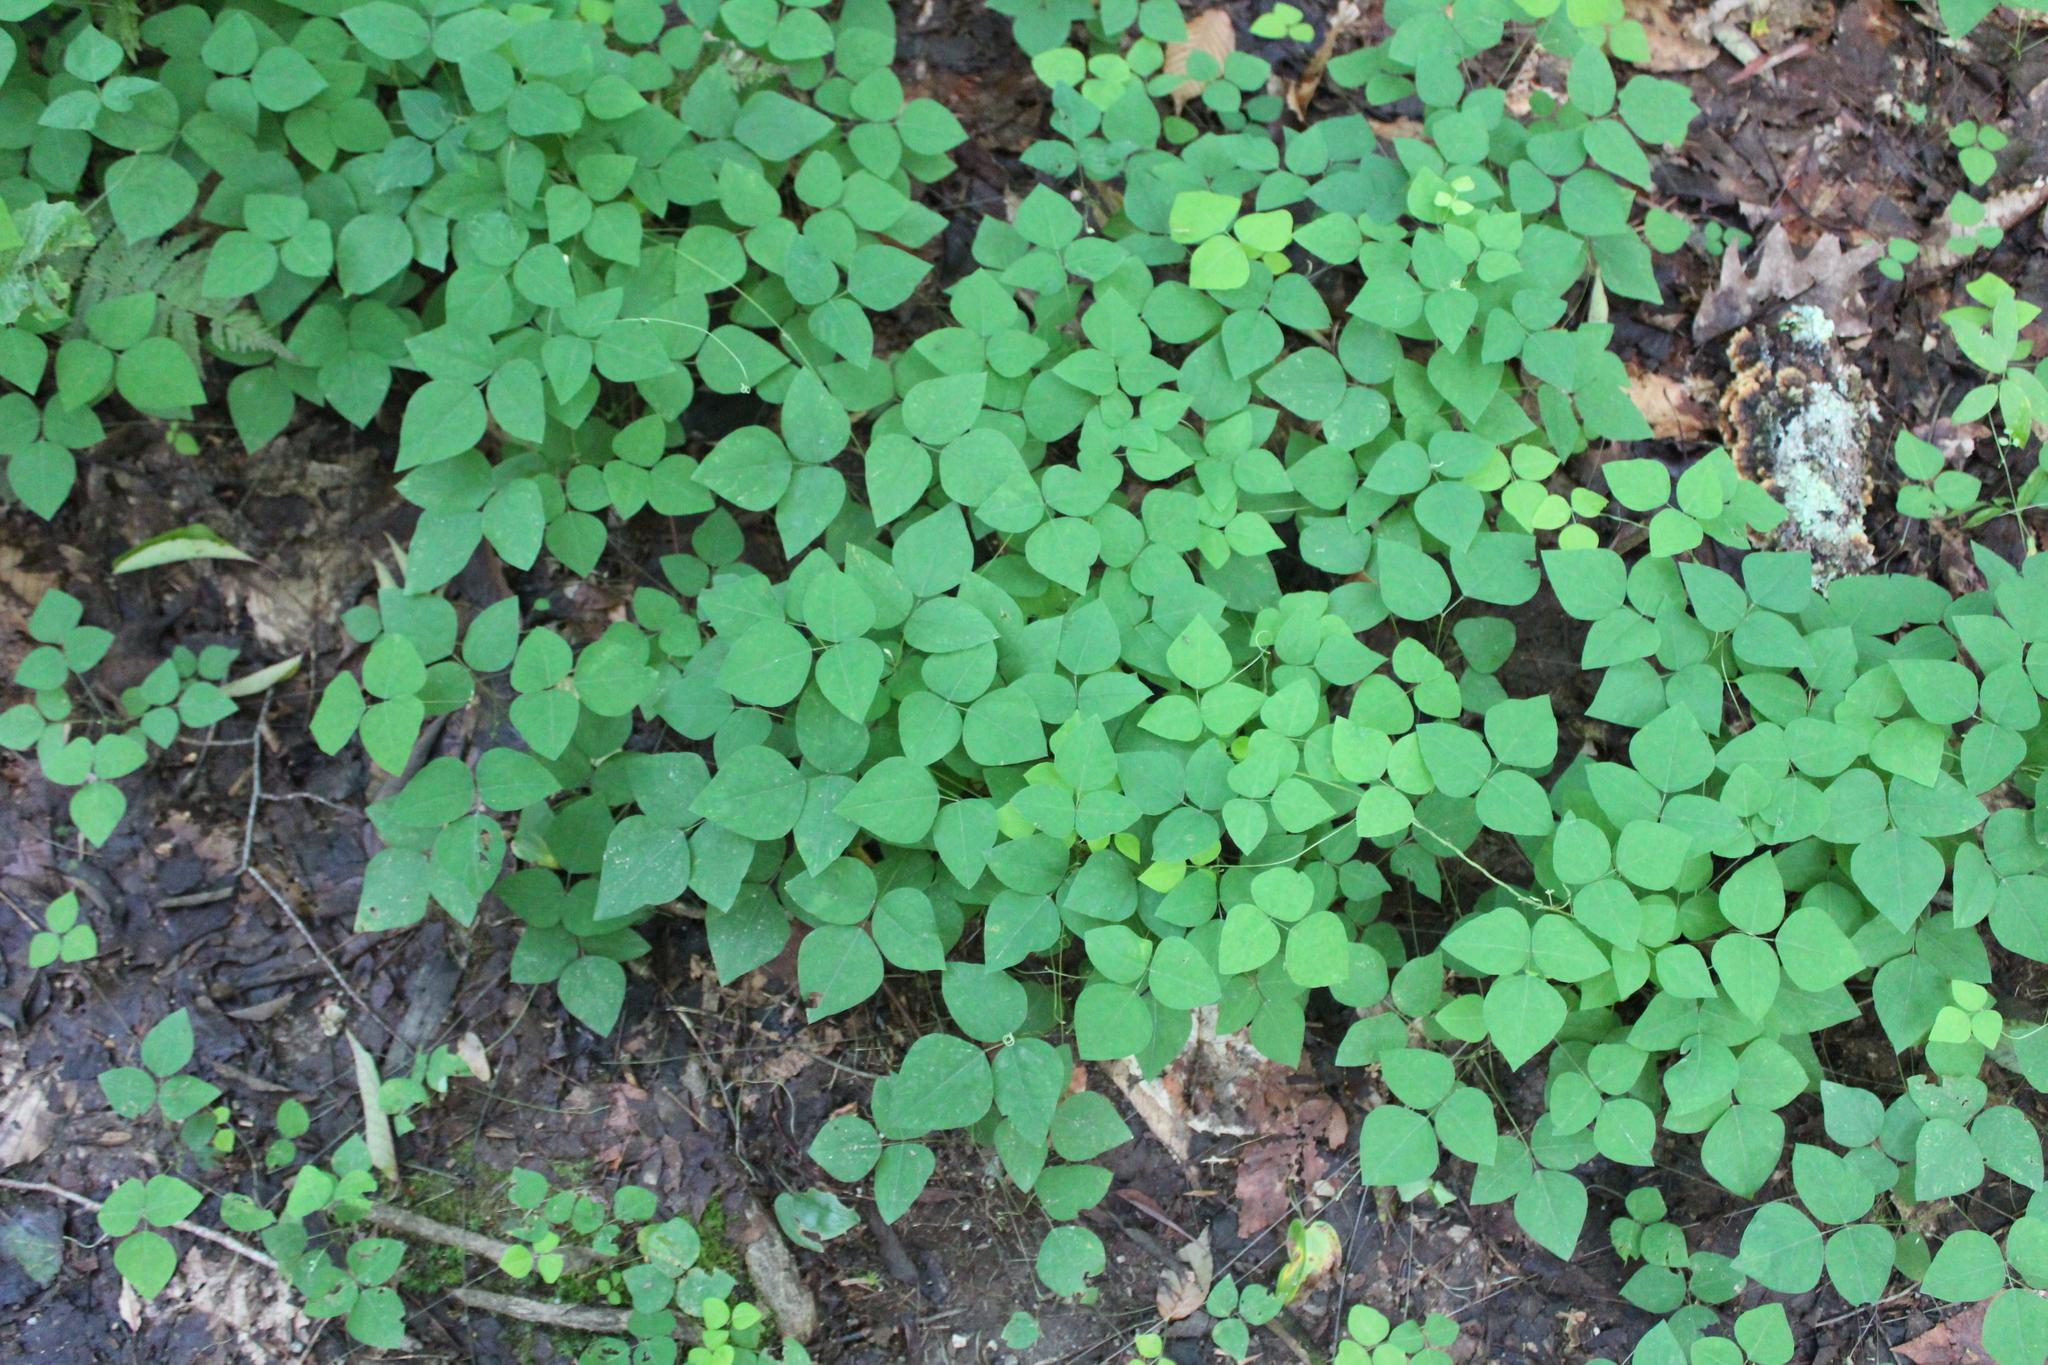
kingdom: Plantae
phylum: Tracheophyta
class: Magnoliopsida
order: Fabales
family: Fabaceae
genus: Amphicarpaea
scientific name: Amphicarpaea bracteata
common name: American hog peanut
